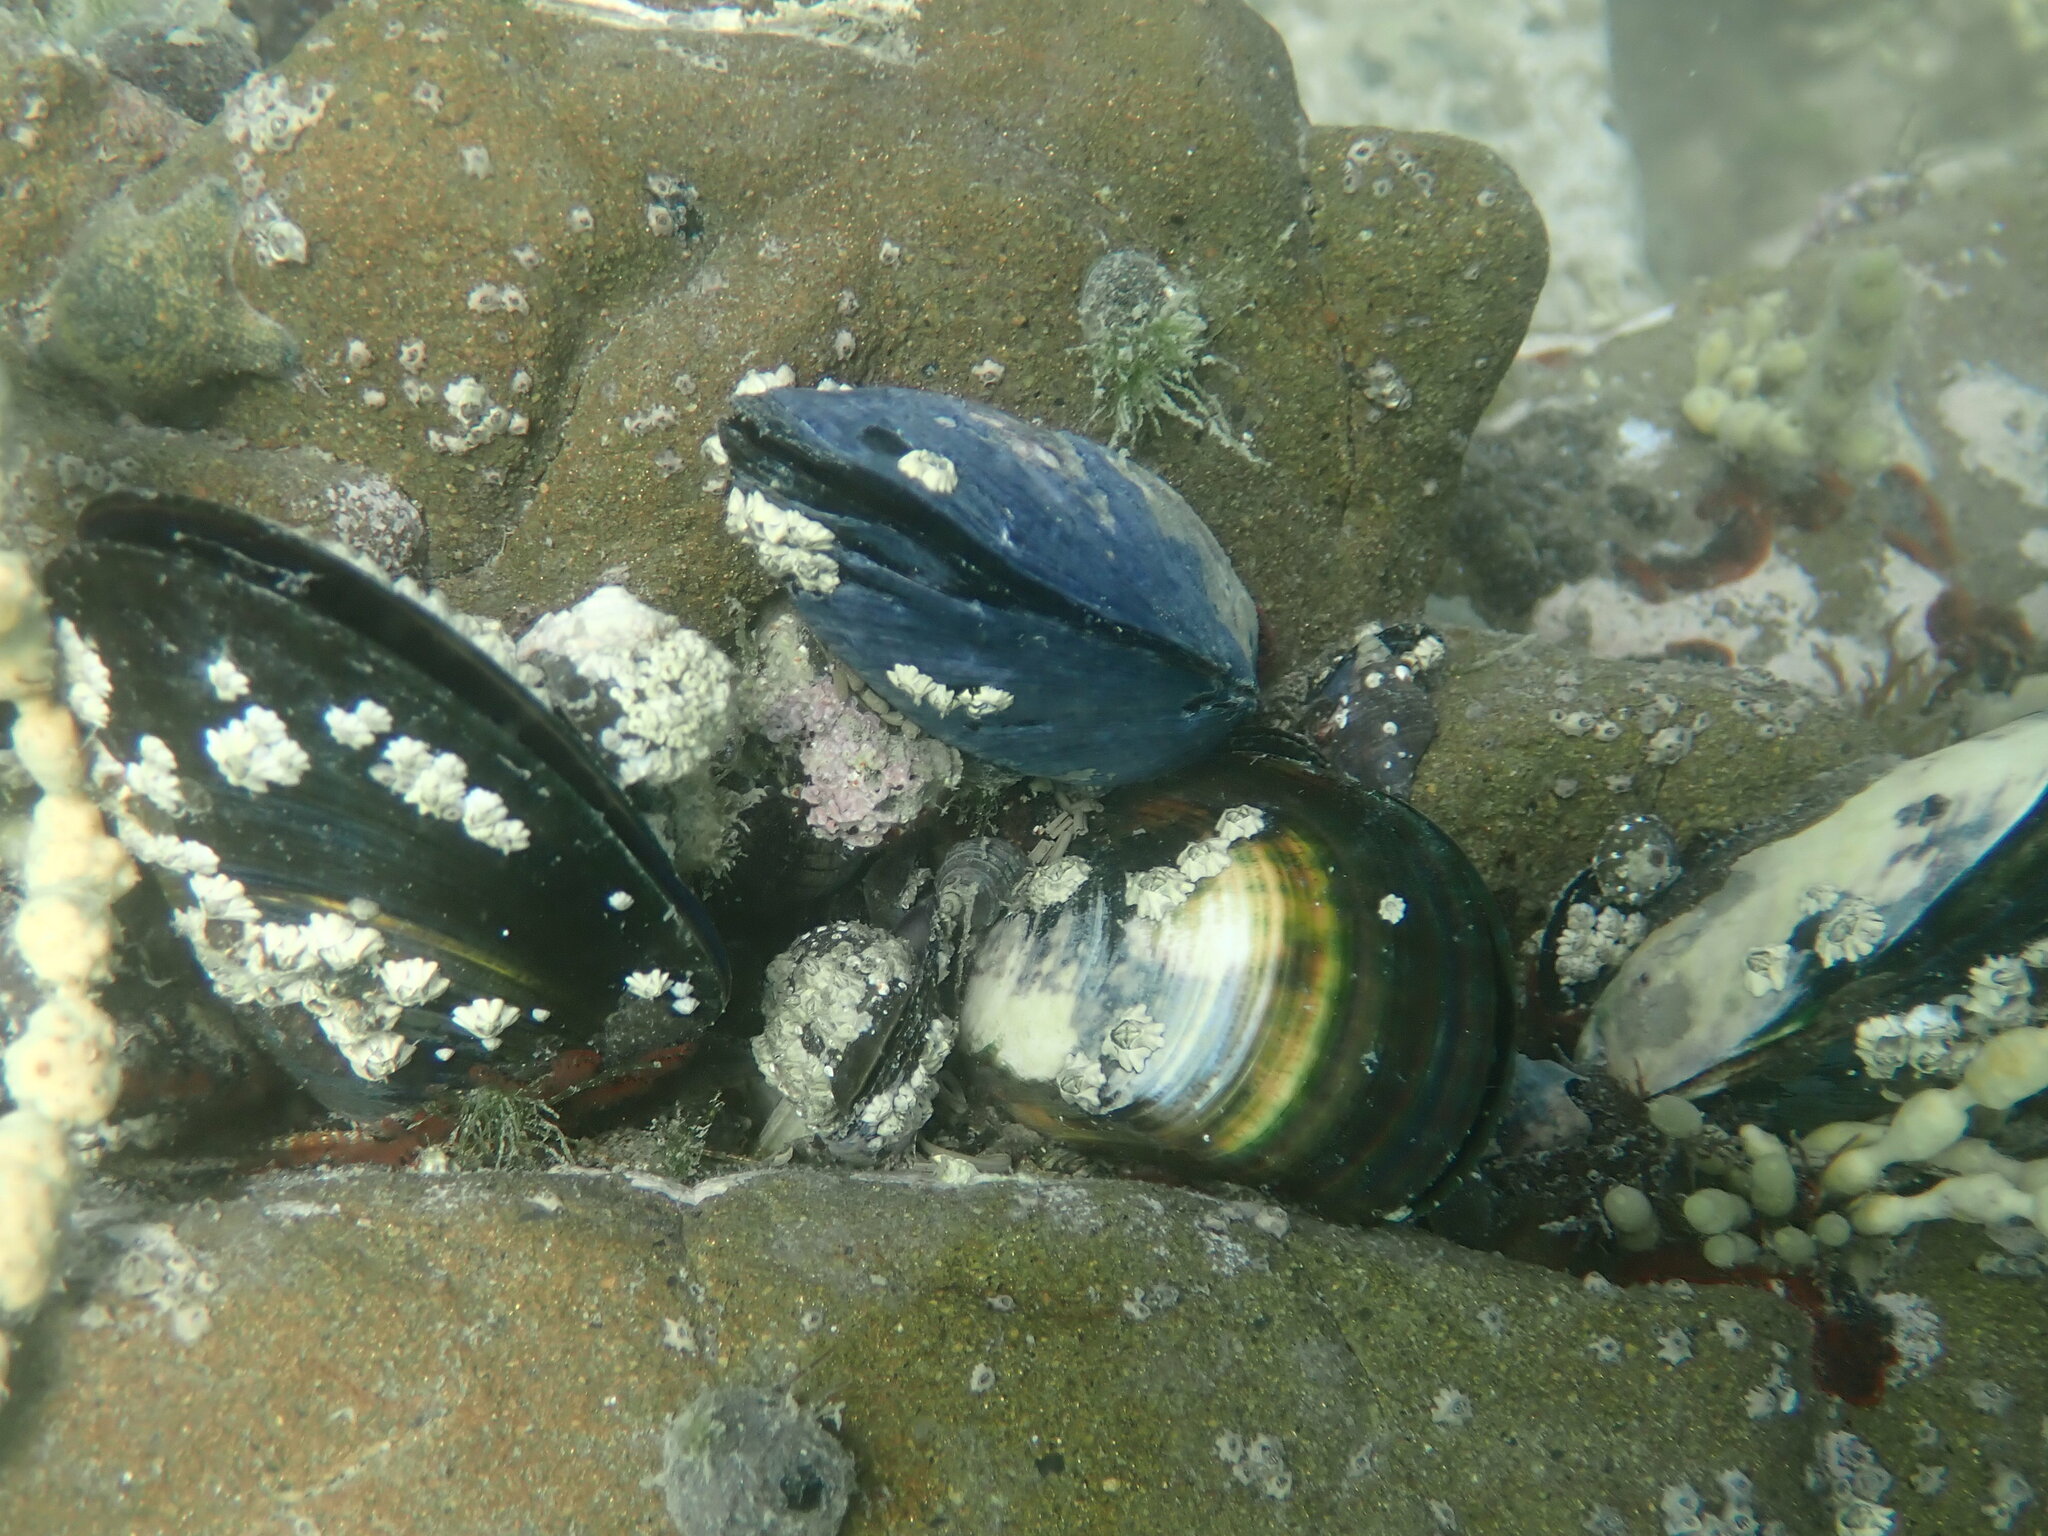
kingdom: Animalia
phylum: Mollusca
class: Bivalvia
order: Mytilida
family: Mytilidae
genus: Perna
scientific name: Perna canaliculus
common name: New zealand greenshelltm
